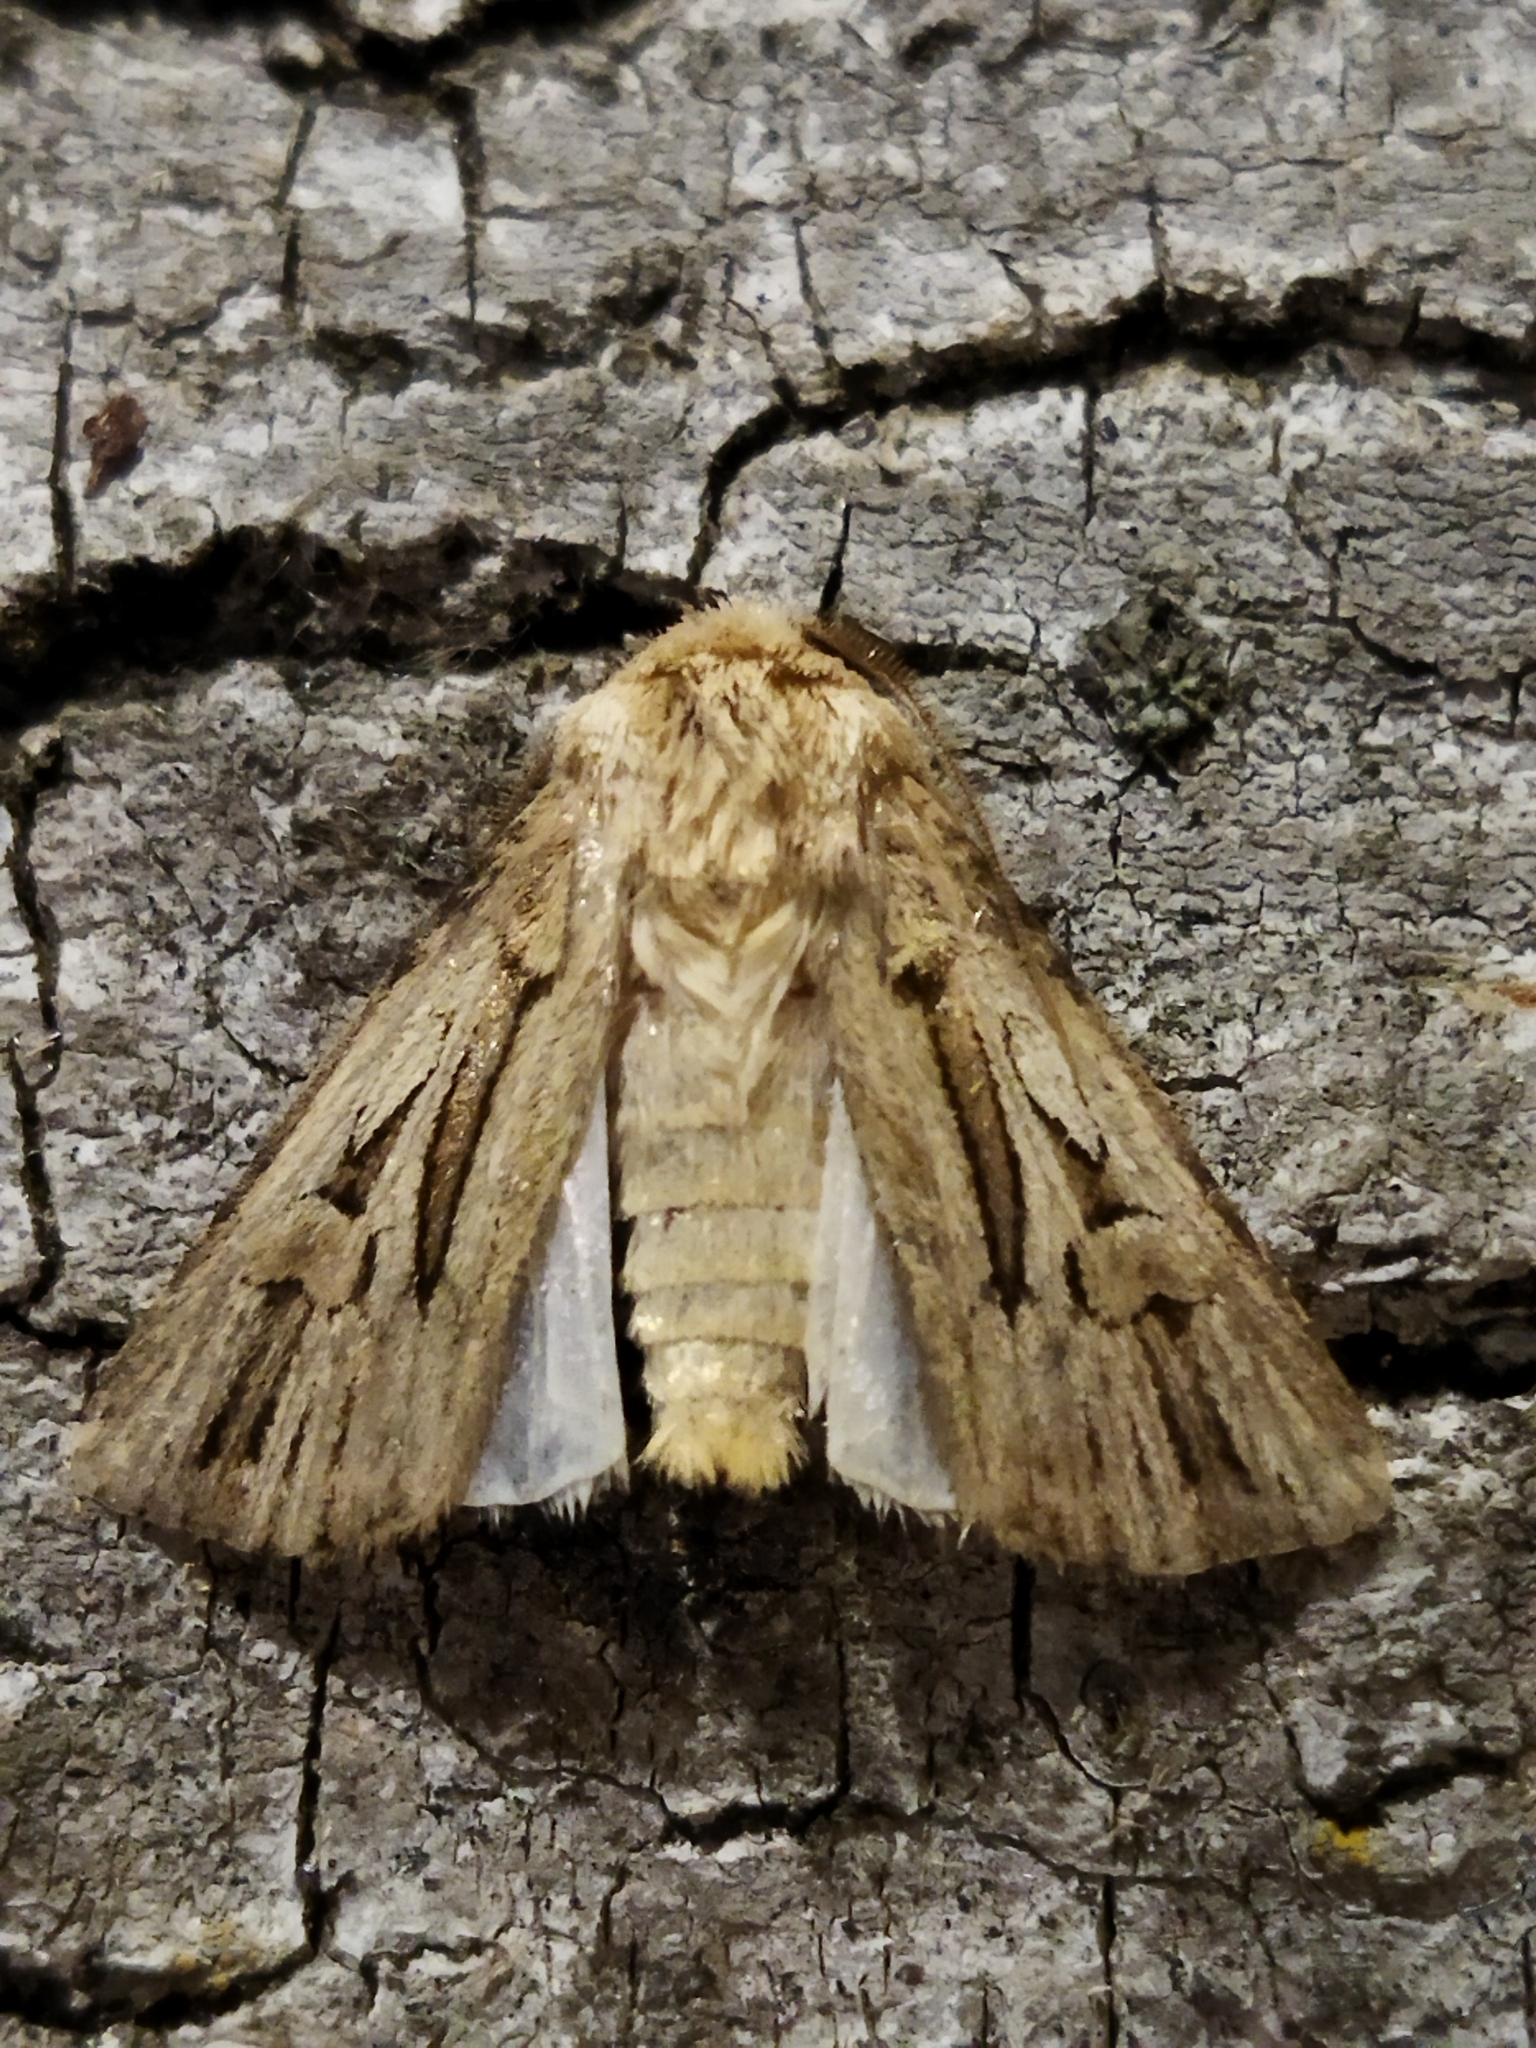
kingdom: Animalia
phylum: Arthropoda
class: Insecta
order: Lepidoptera
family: Noctuidae
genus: Agrotis
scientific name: Agrotis
